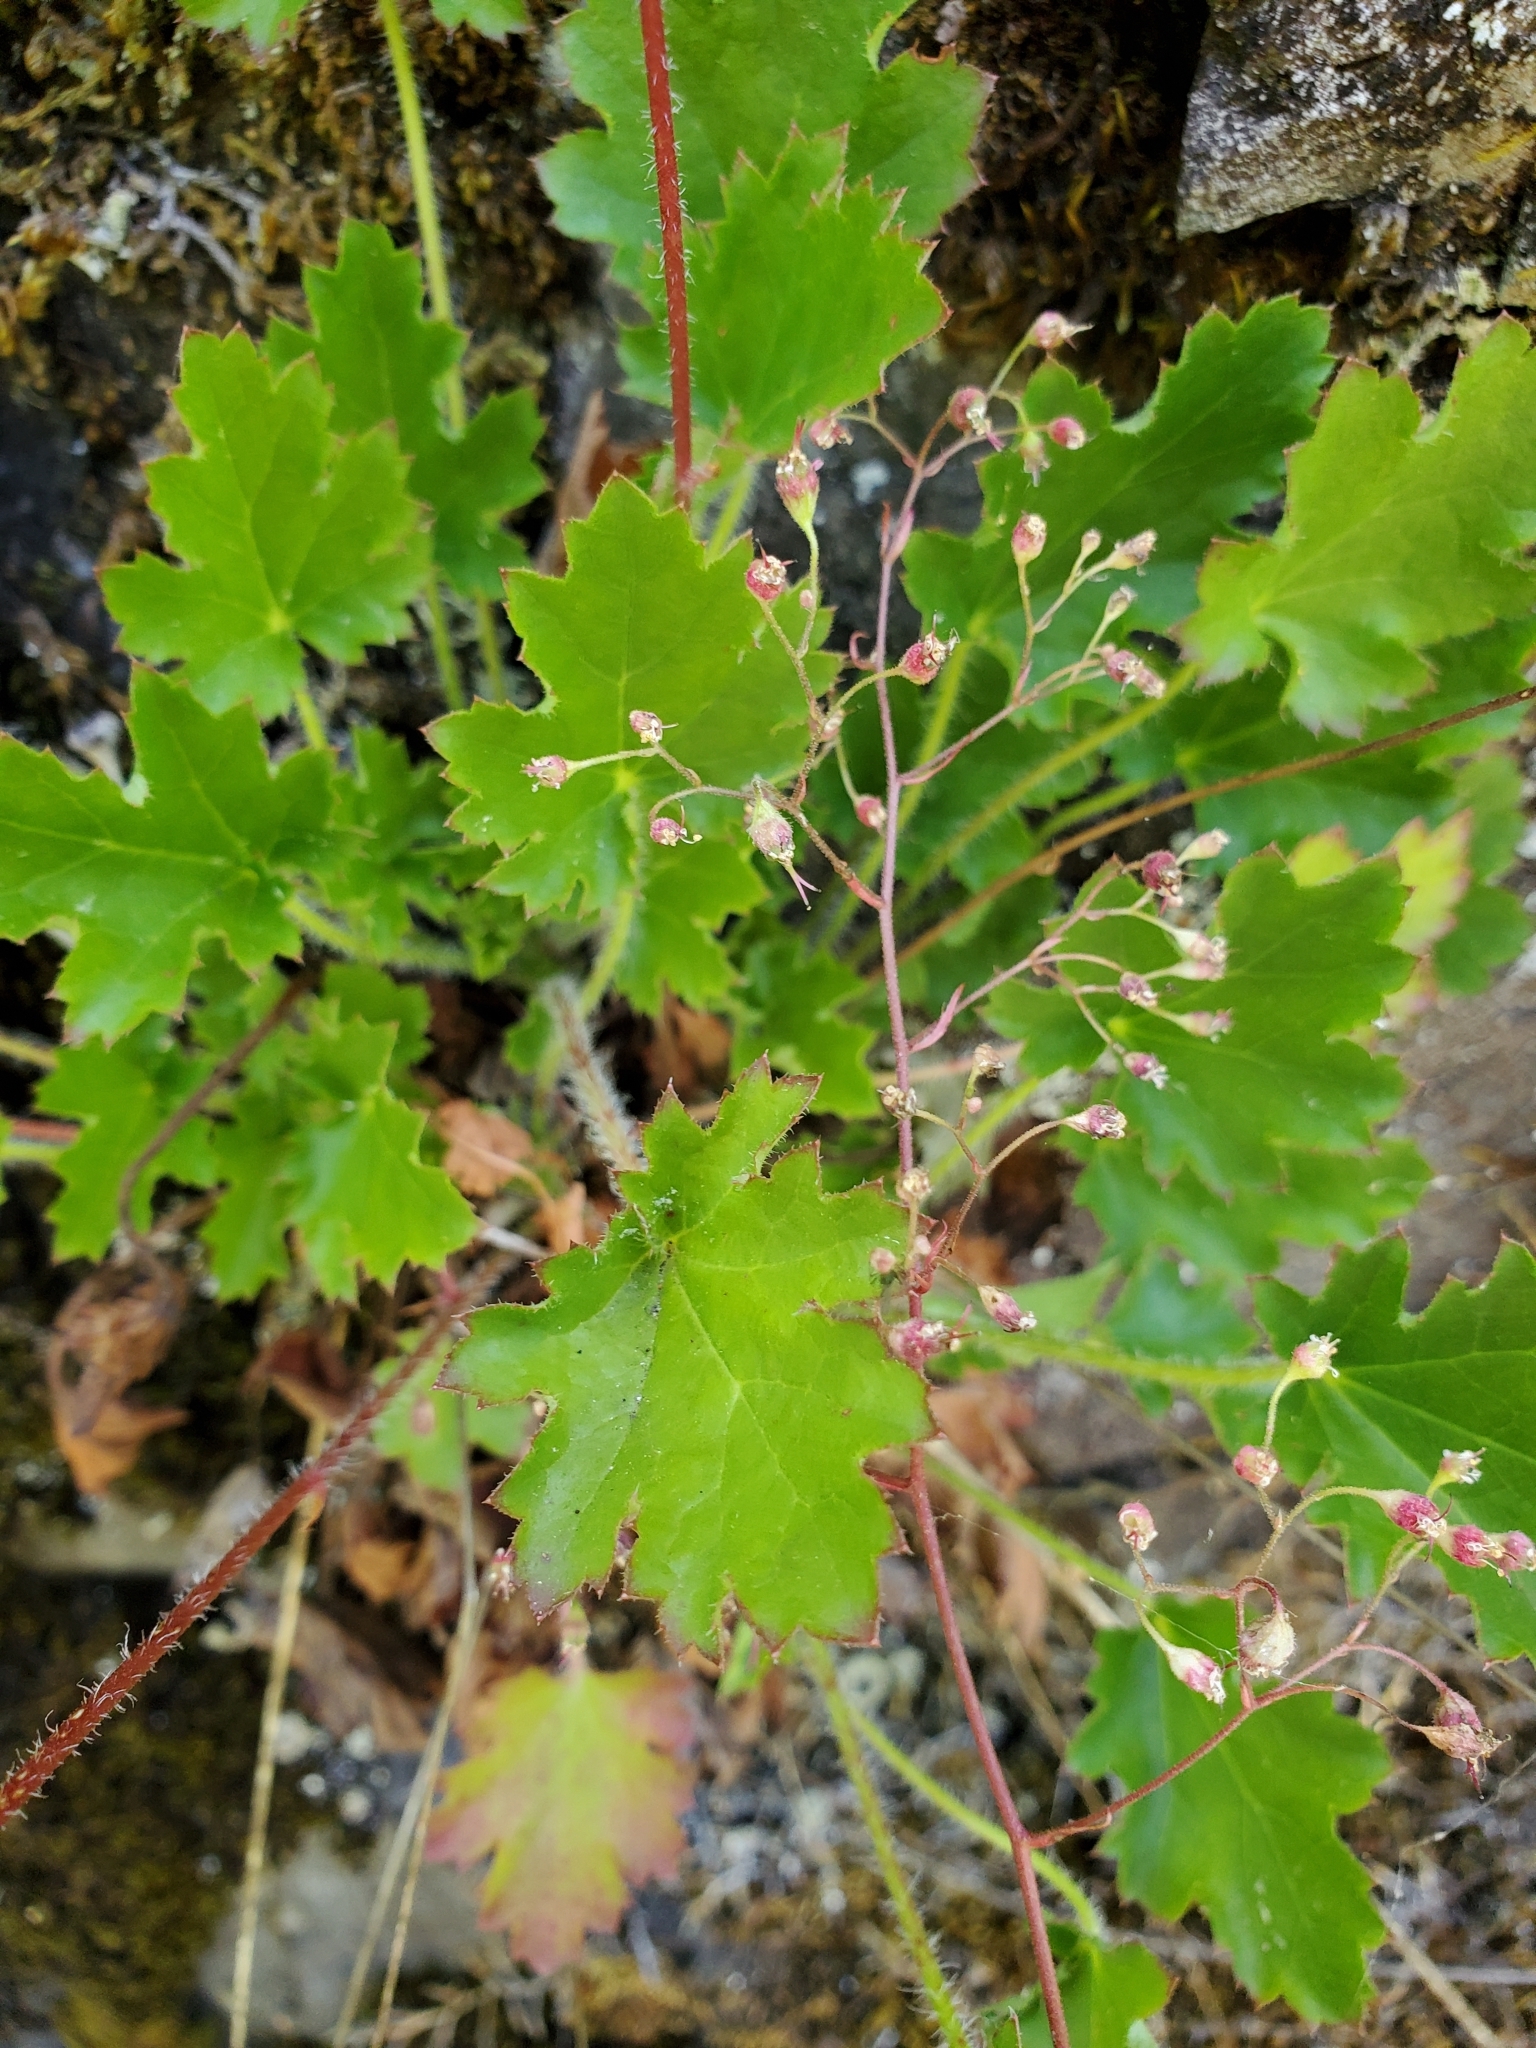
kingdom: Plantae
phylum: Tracheophyta
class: Magnoliopsida
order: Saxifragales
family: Saxifragaceae
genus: Heuchera
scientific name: Heuchera micrantha
